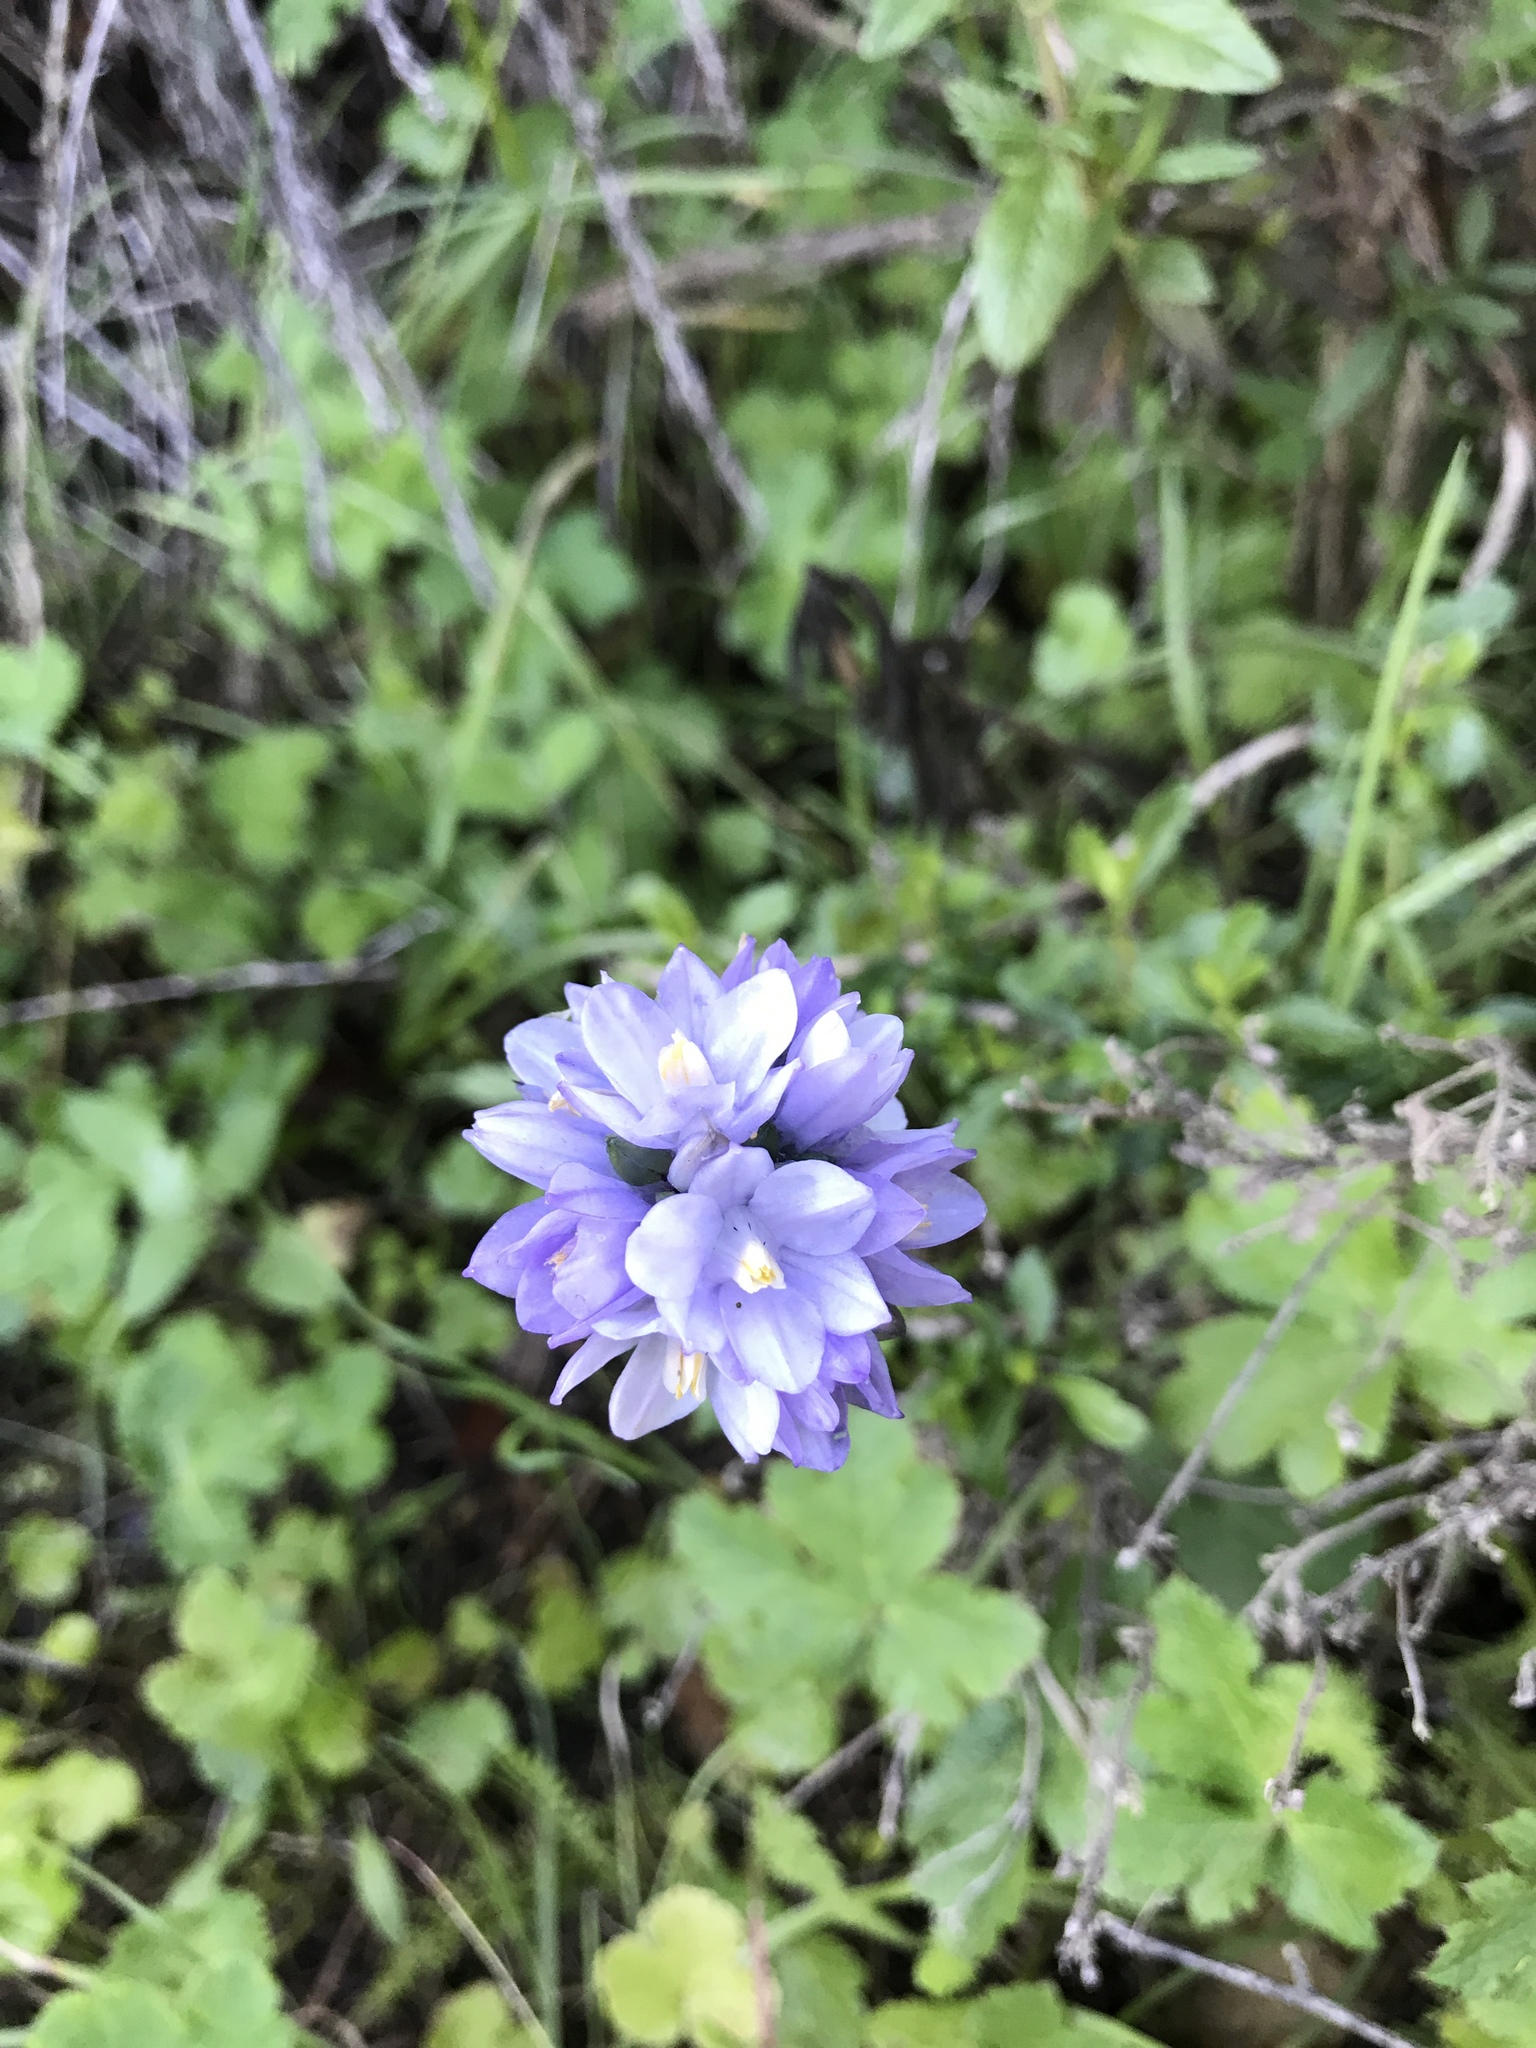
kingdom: Plantae
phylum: Tracheophyta
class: Liliopsida
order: Asparagales
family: Asparagaceae
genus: Dipterostemon
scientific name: Dipterostemon capitatus
